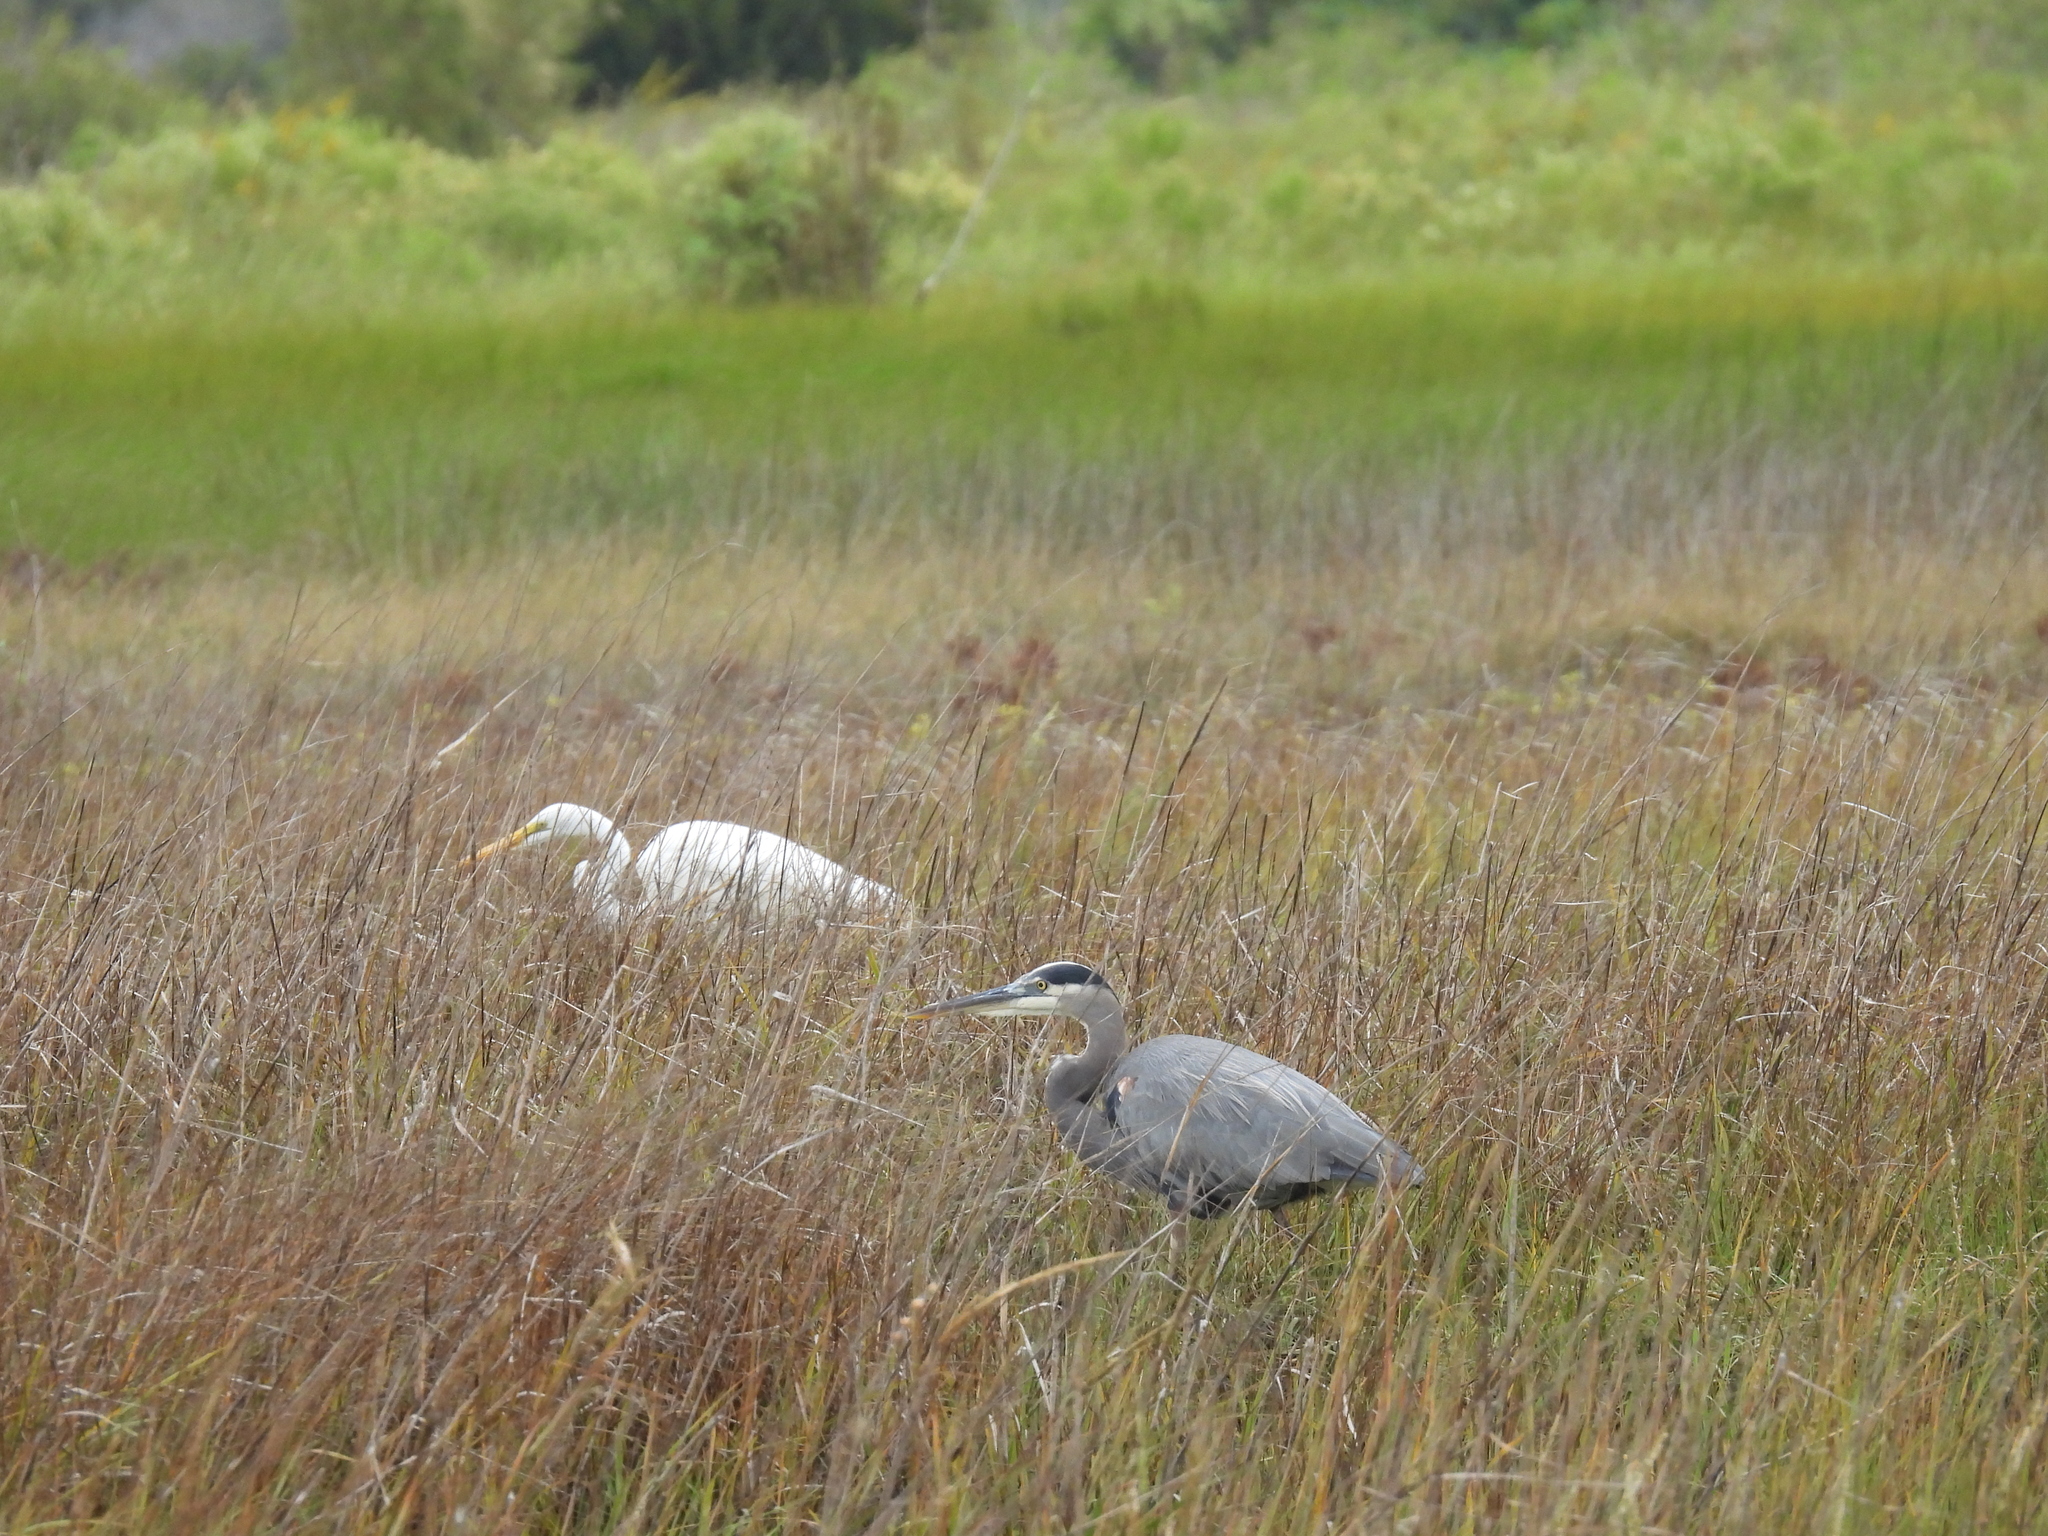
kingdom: Animalia
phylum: Chordata
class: Aves
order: Pelecaniformes
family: Ardeidae
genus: Ardea
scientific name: Ardea alba
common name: Great egret
